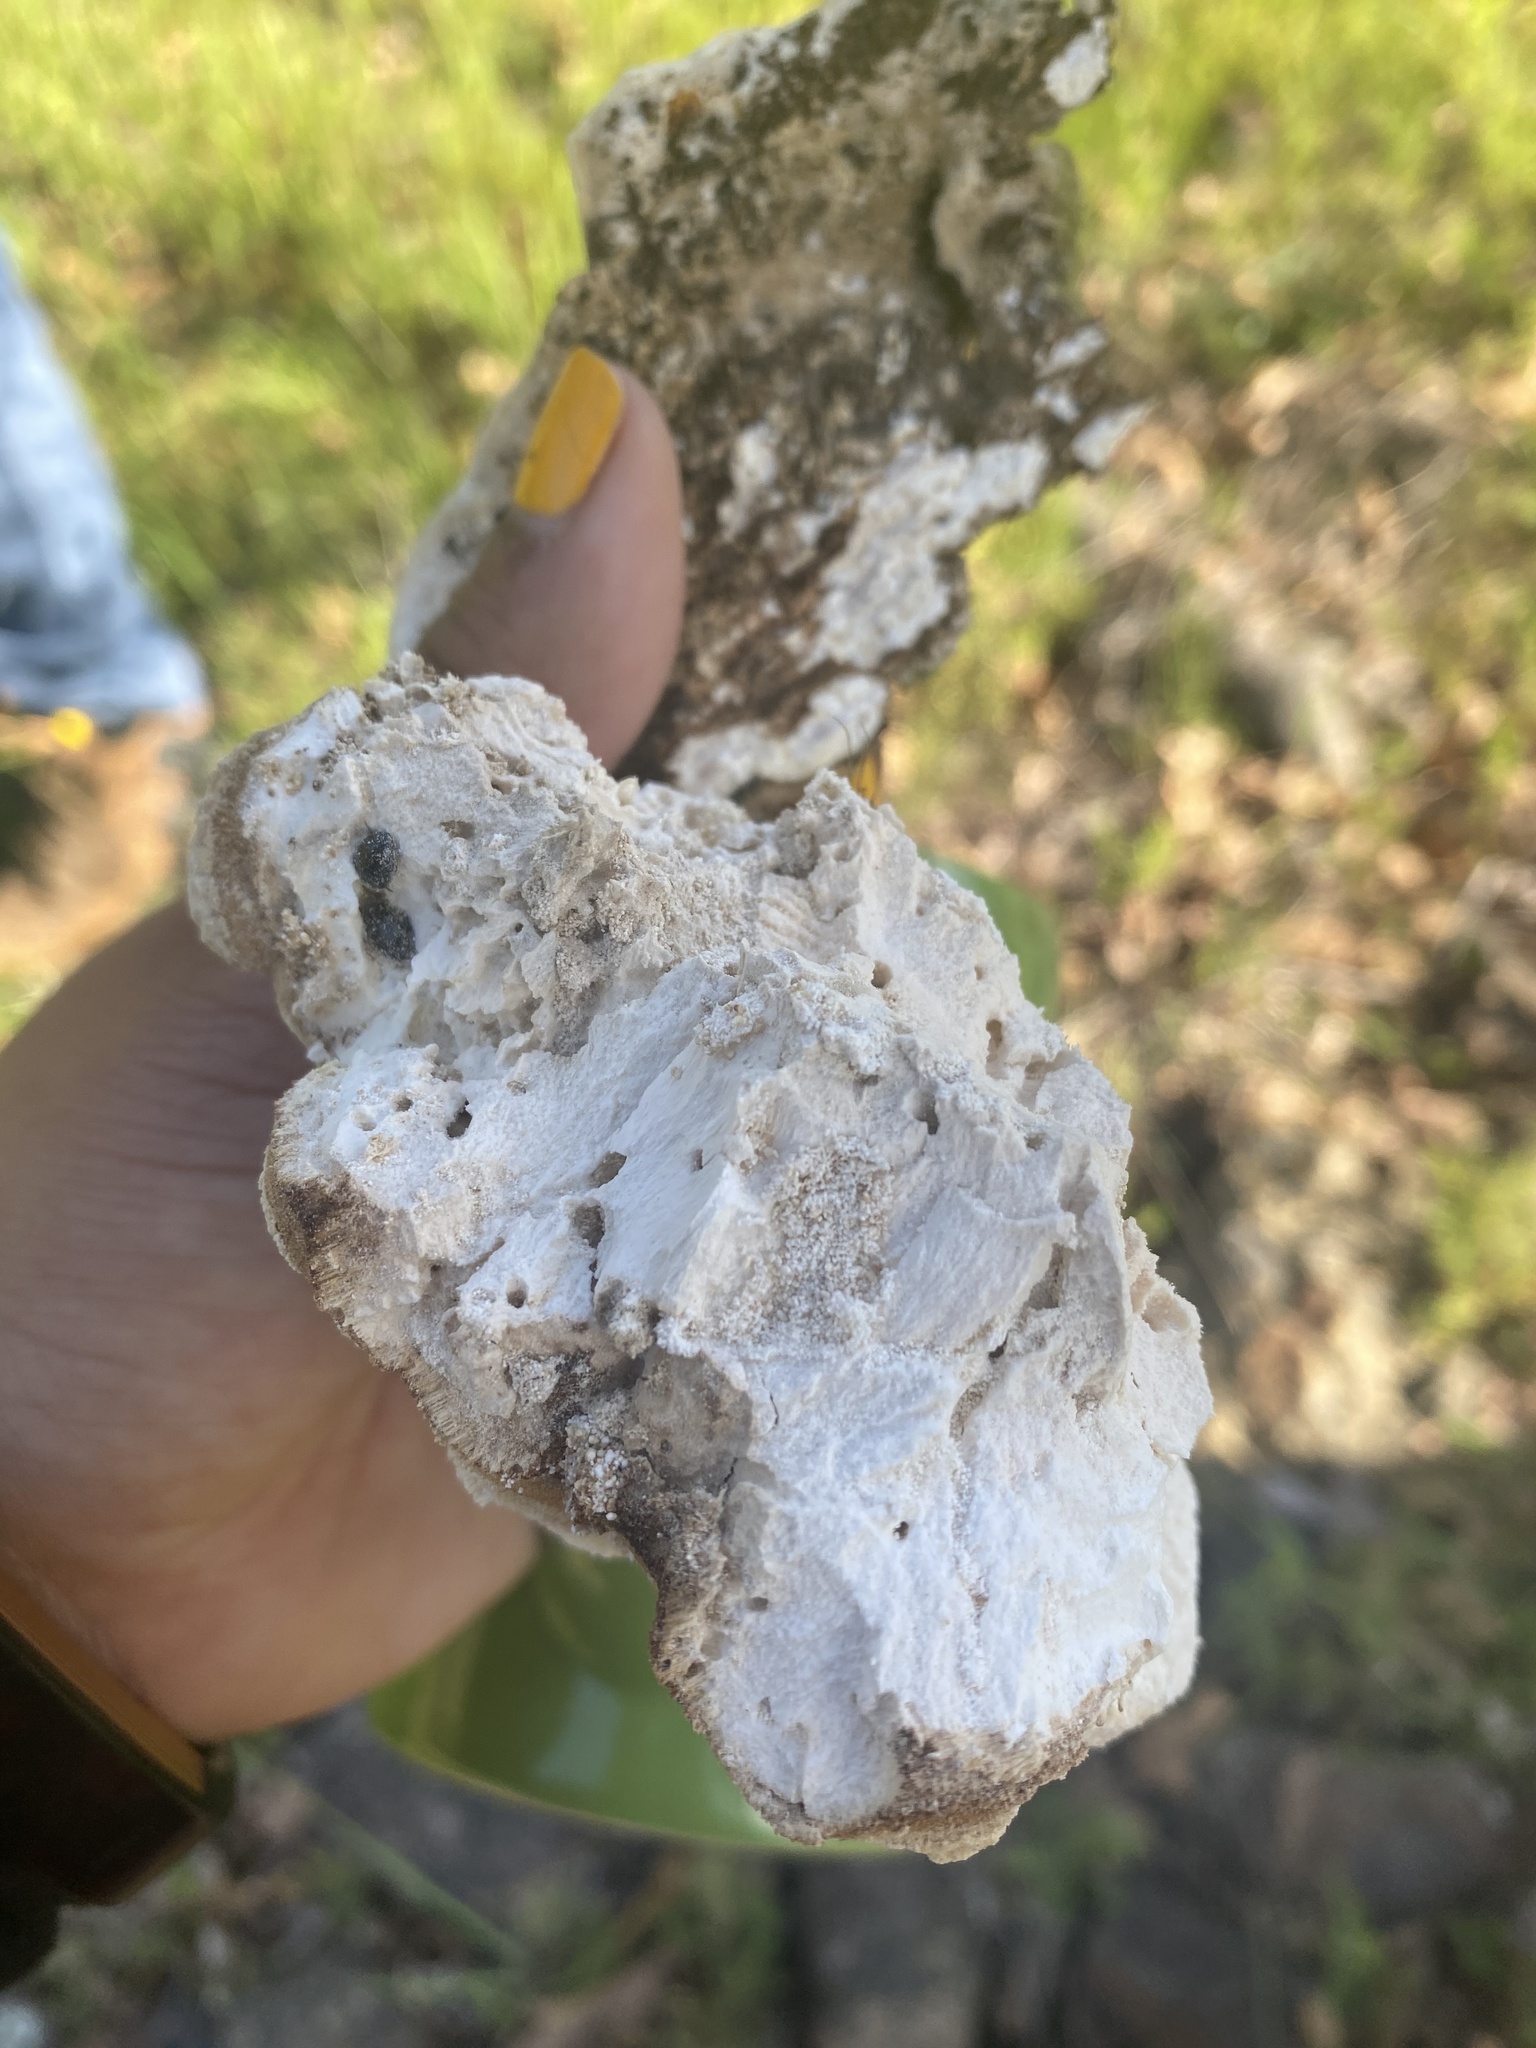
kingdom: Fungi
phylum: Basidiomycota
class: Agaricomycetes
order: Polyporales
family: Laetiporaceae
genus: Laetiporus
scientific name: Laetiporus gilbertsonii
